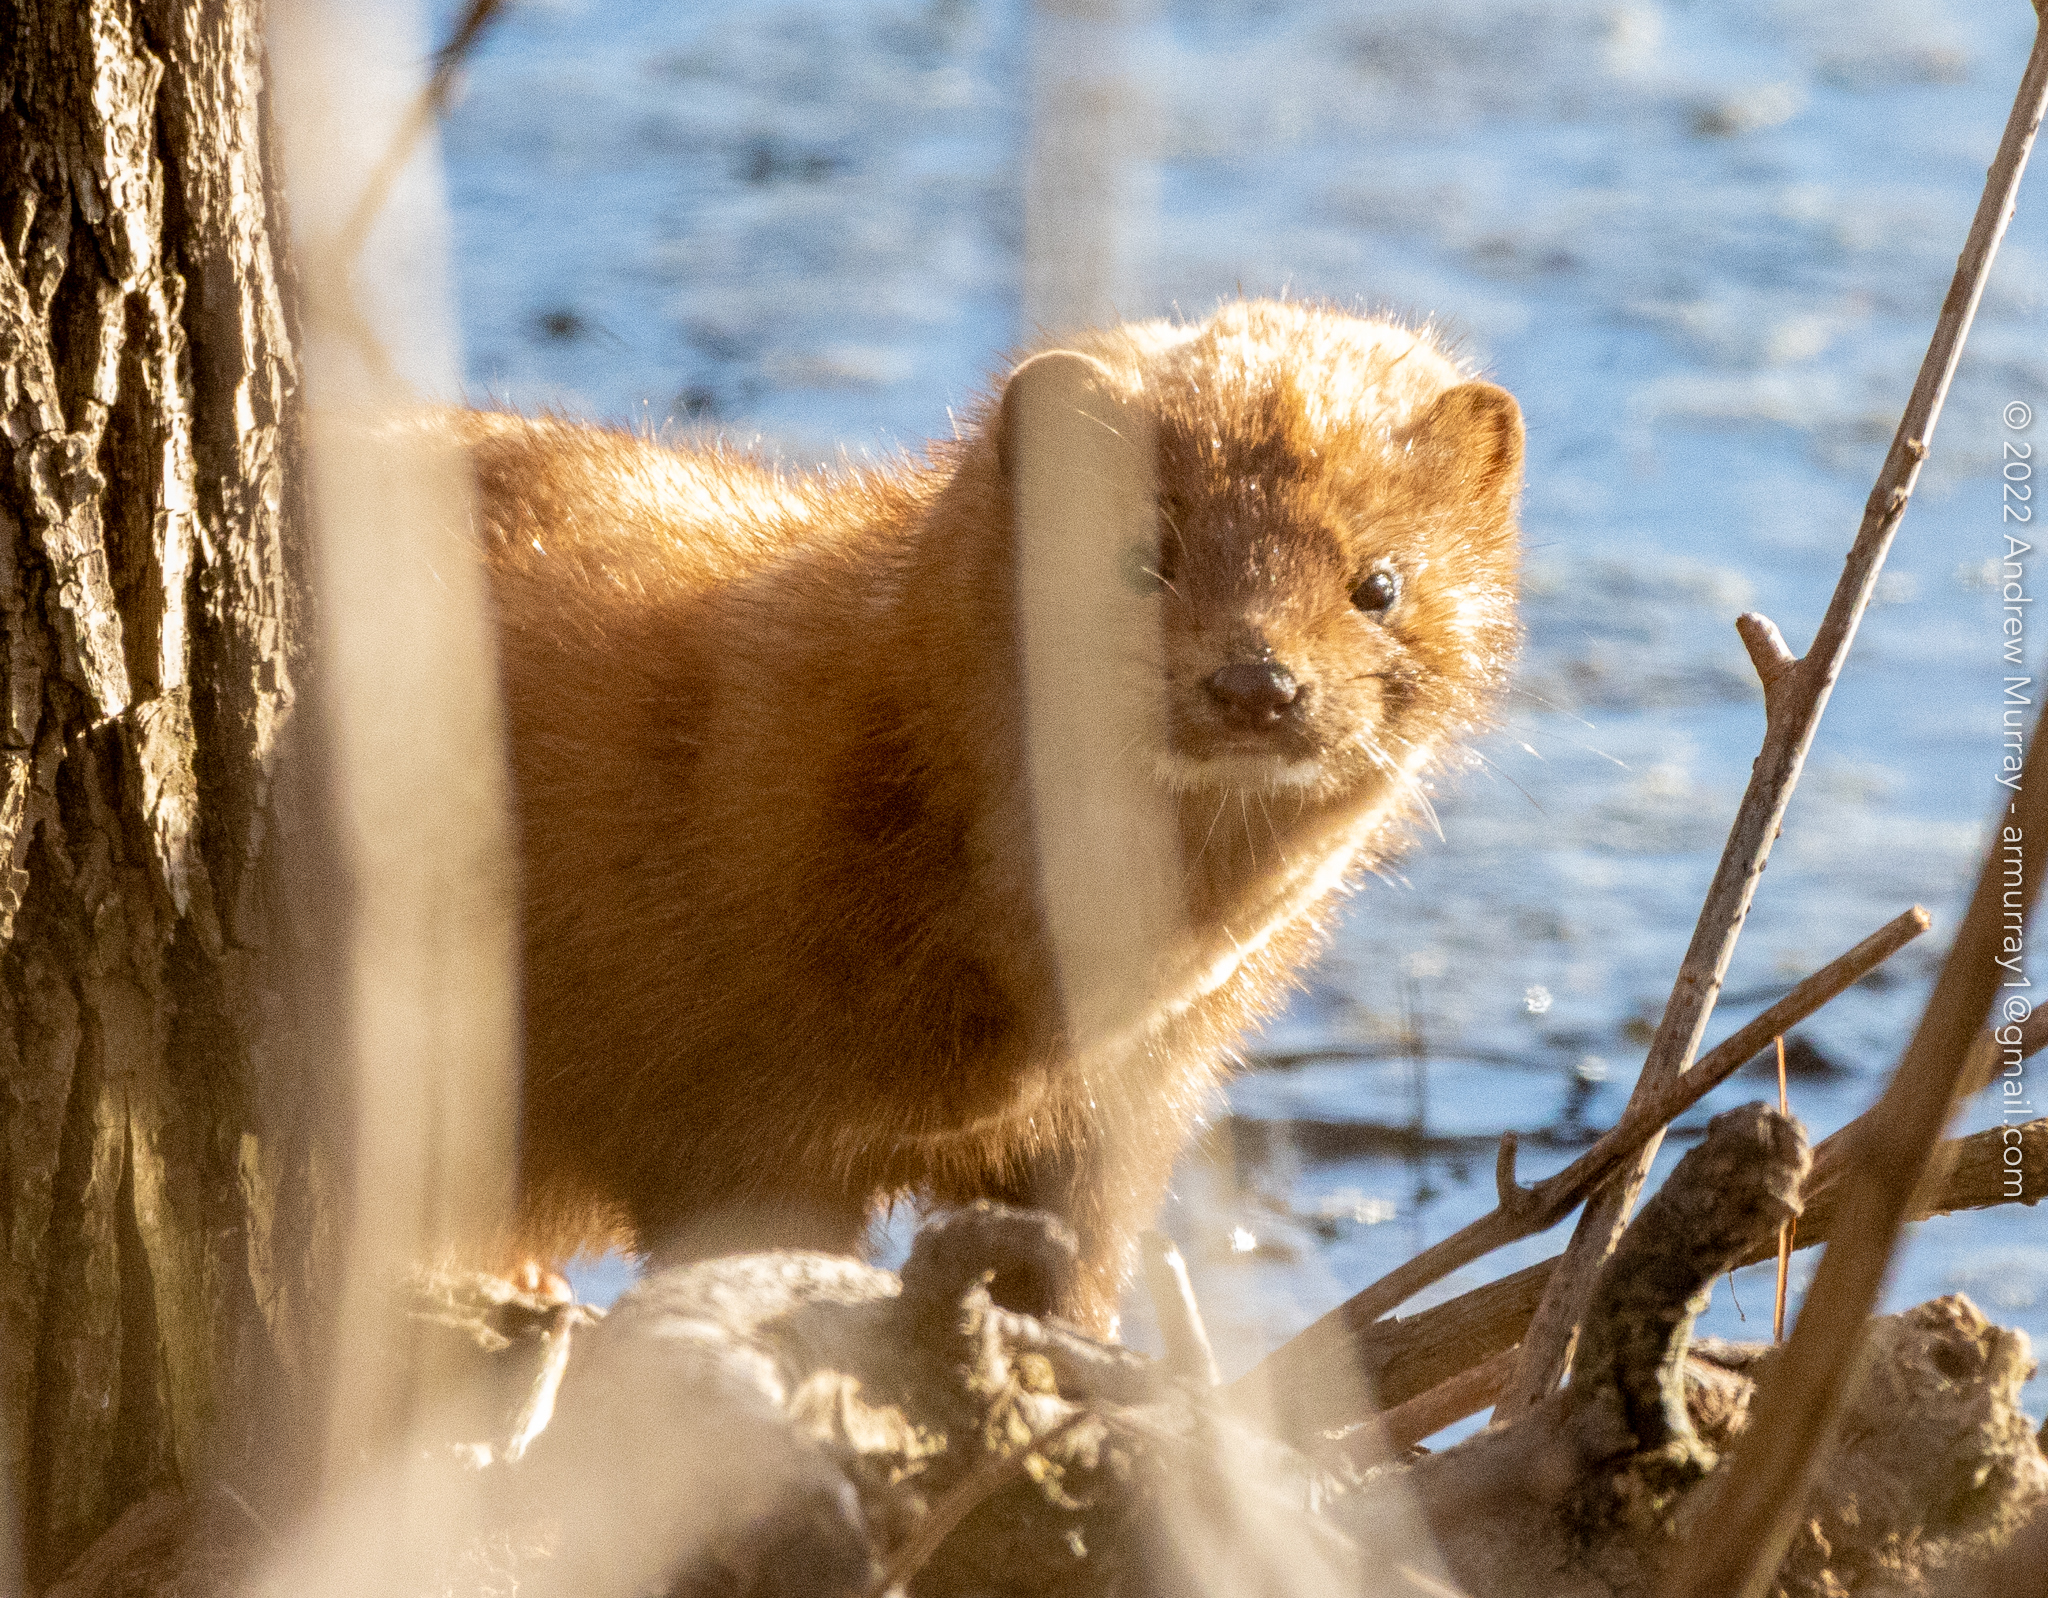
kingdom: Animalia
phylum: Chordata
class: Mammalia
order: Carnivora
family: Mustelidae
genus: Mustela
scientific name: Mustela
